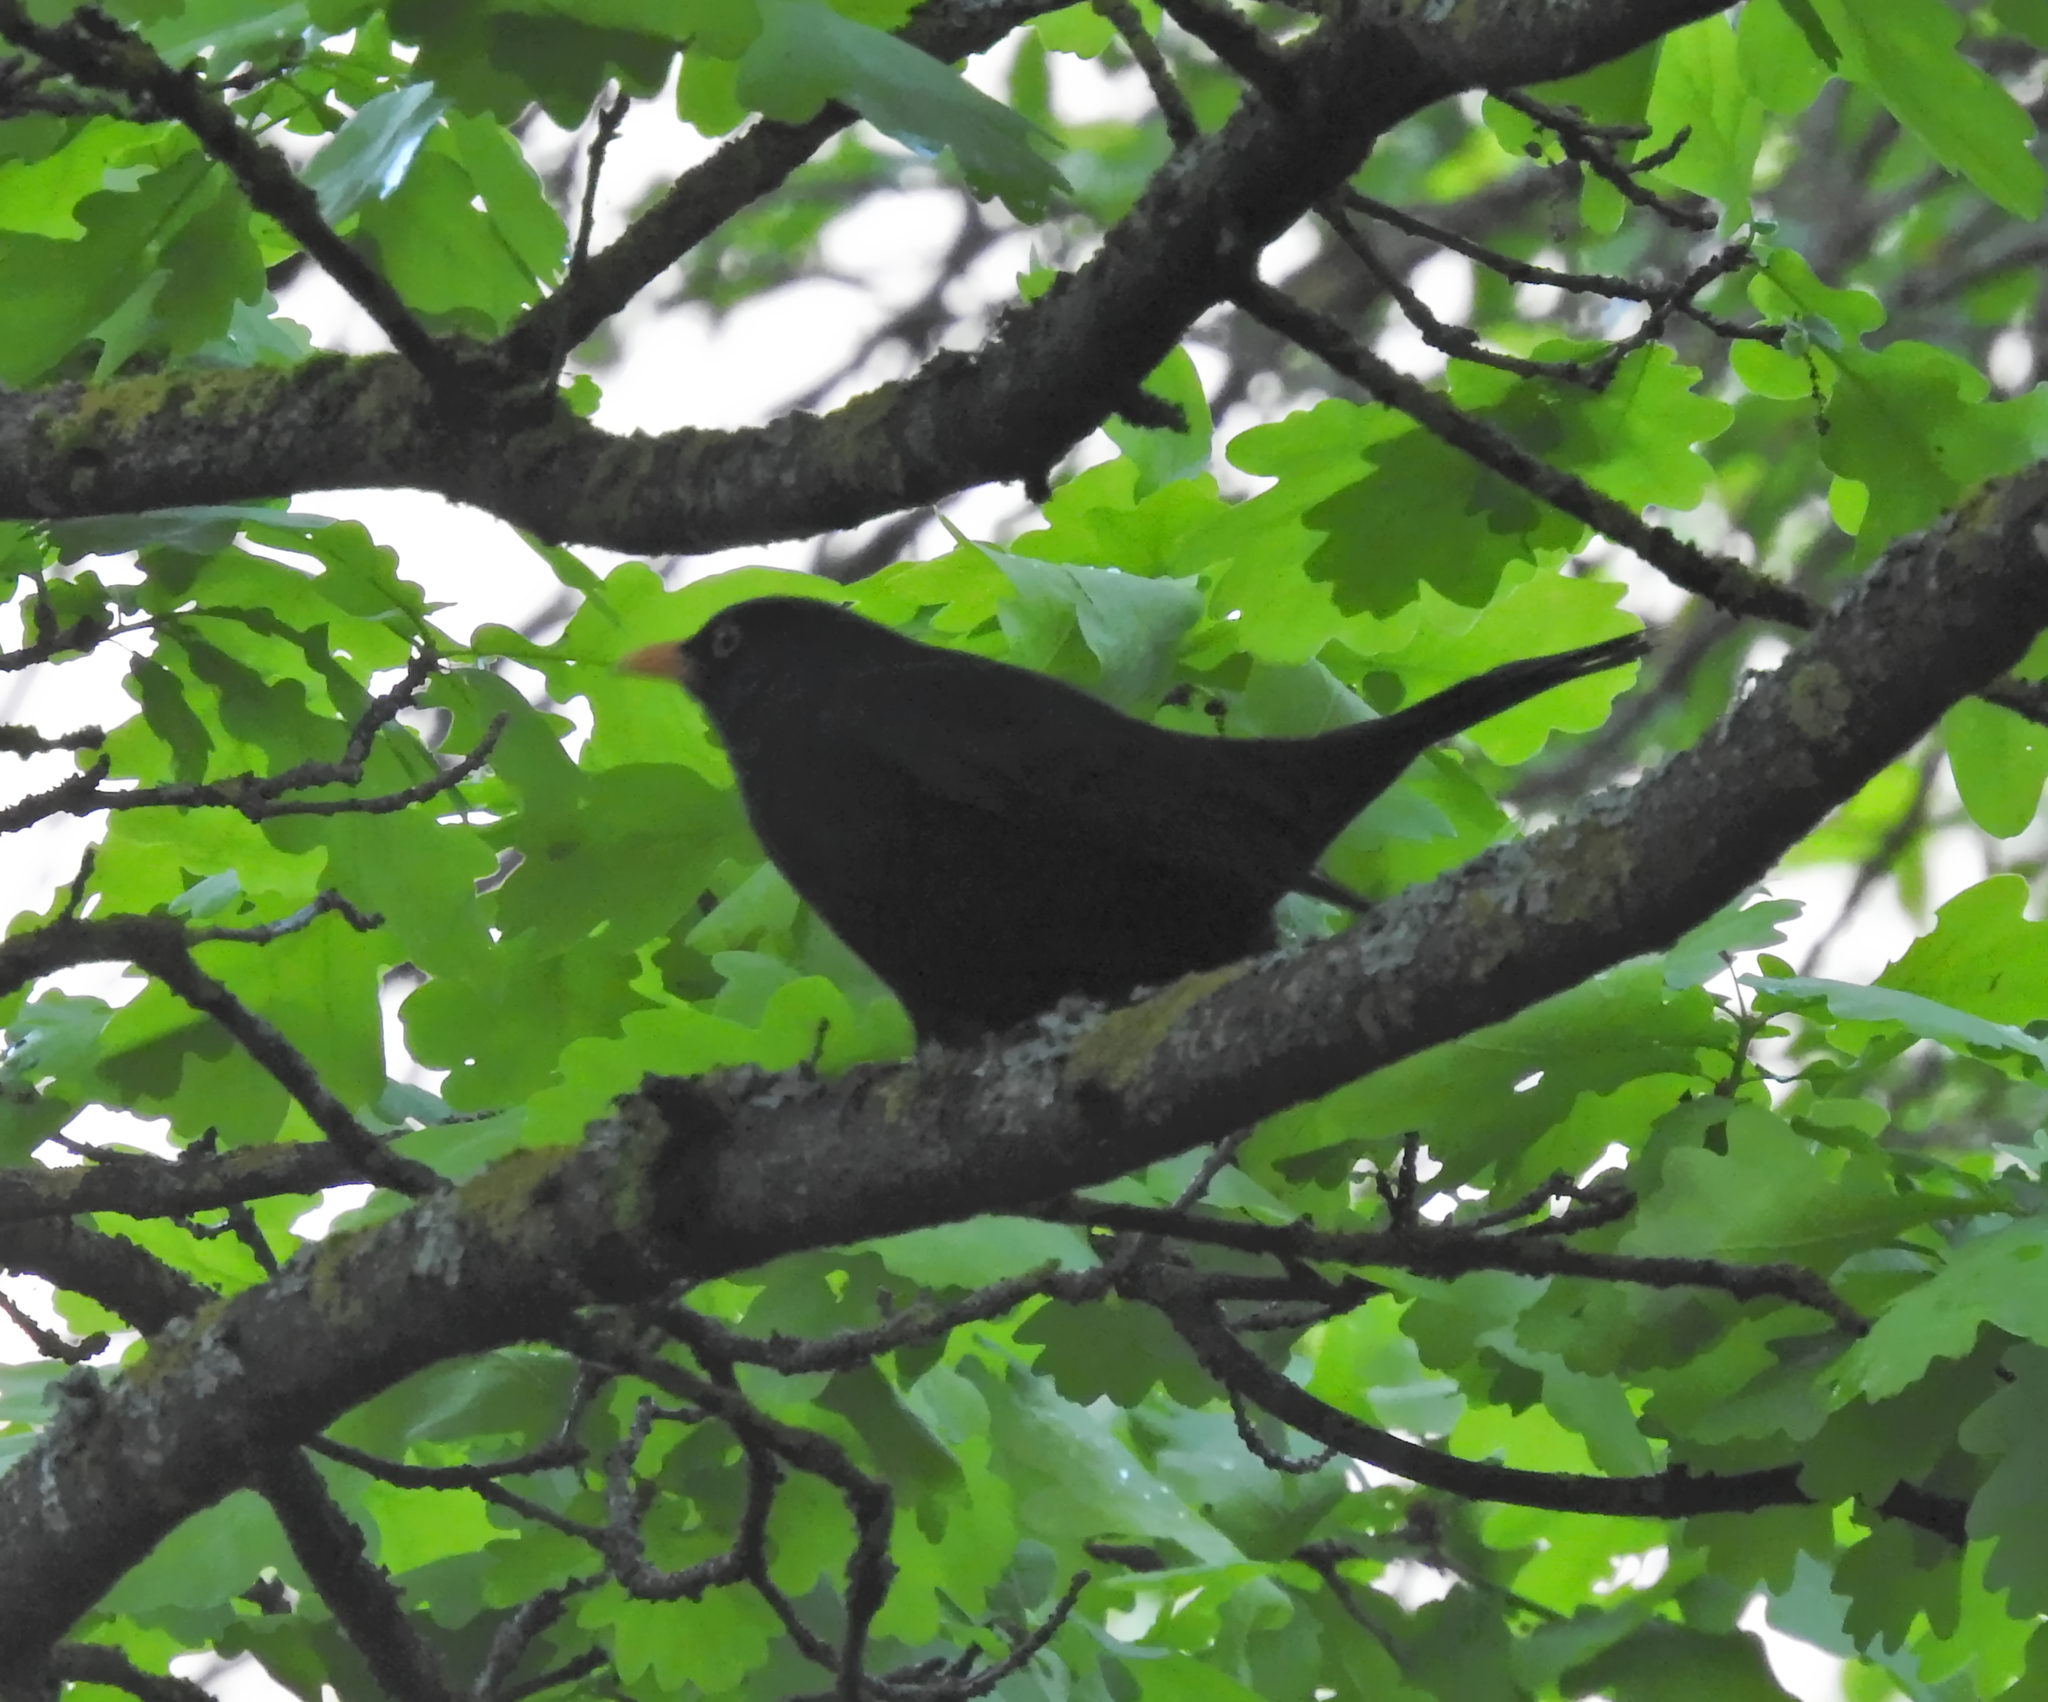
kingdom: Animalia
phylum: Chordata
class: Aves
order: Passeriformes
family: Turdidae
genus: Turdus
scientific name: Turdus merula
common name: Common blackbird
